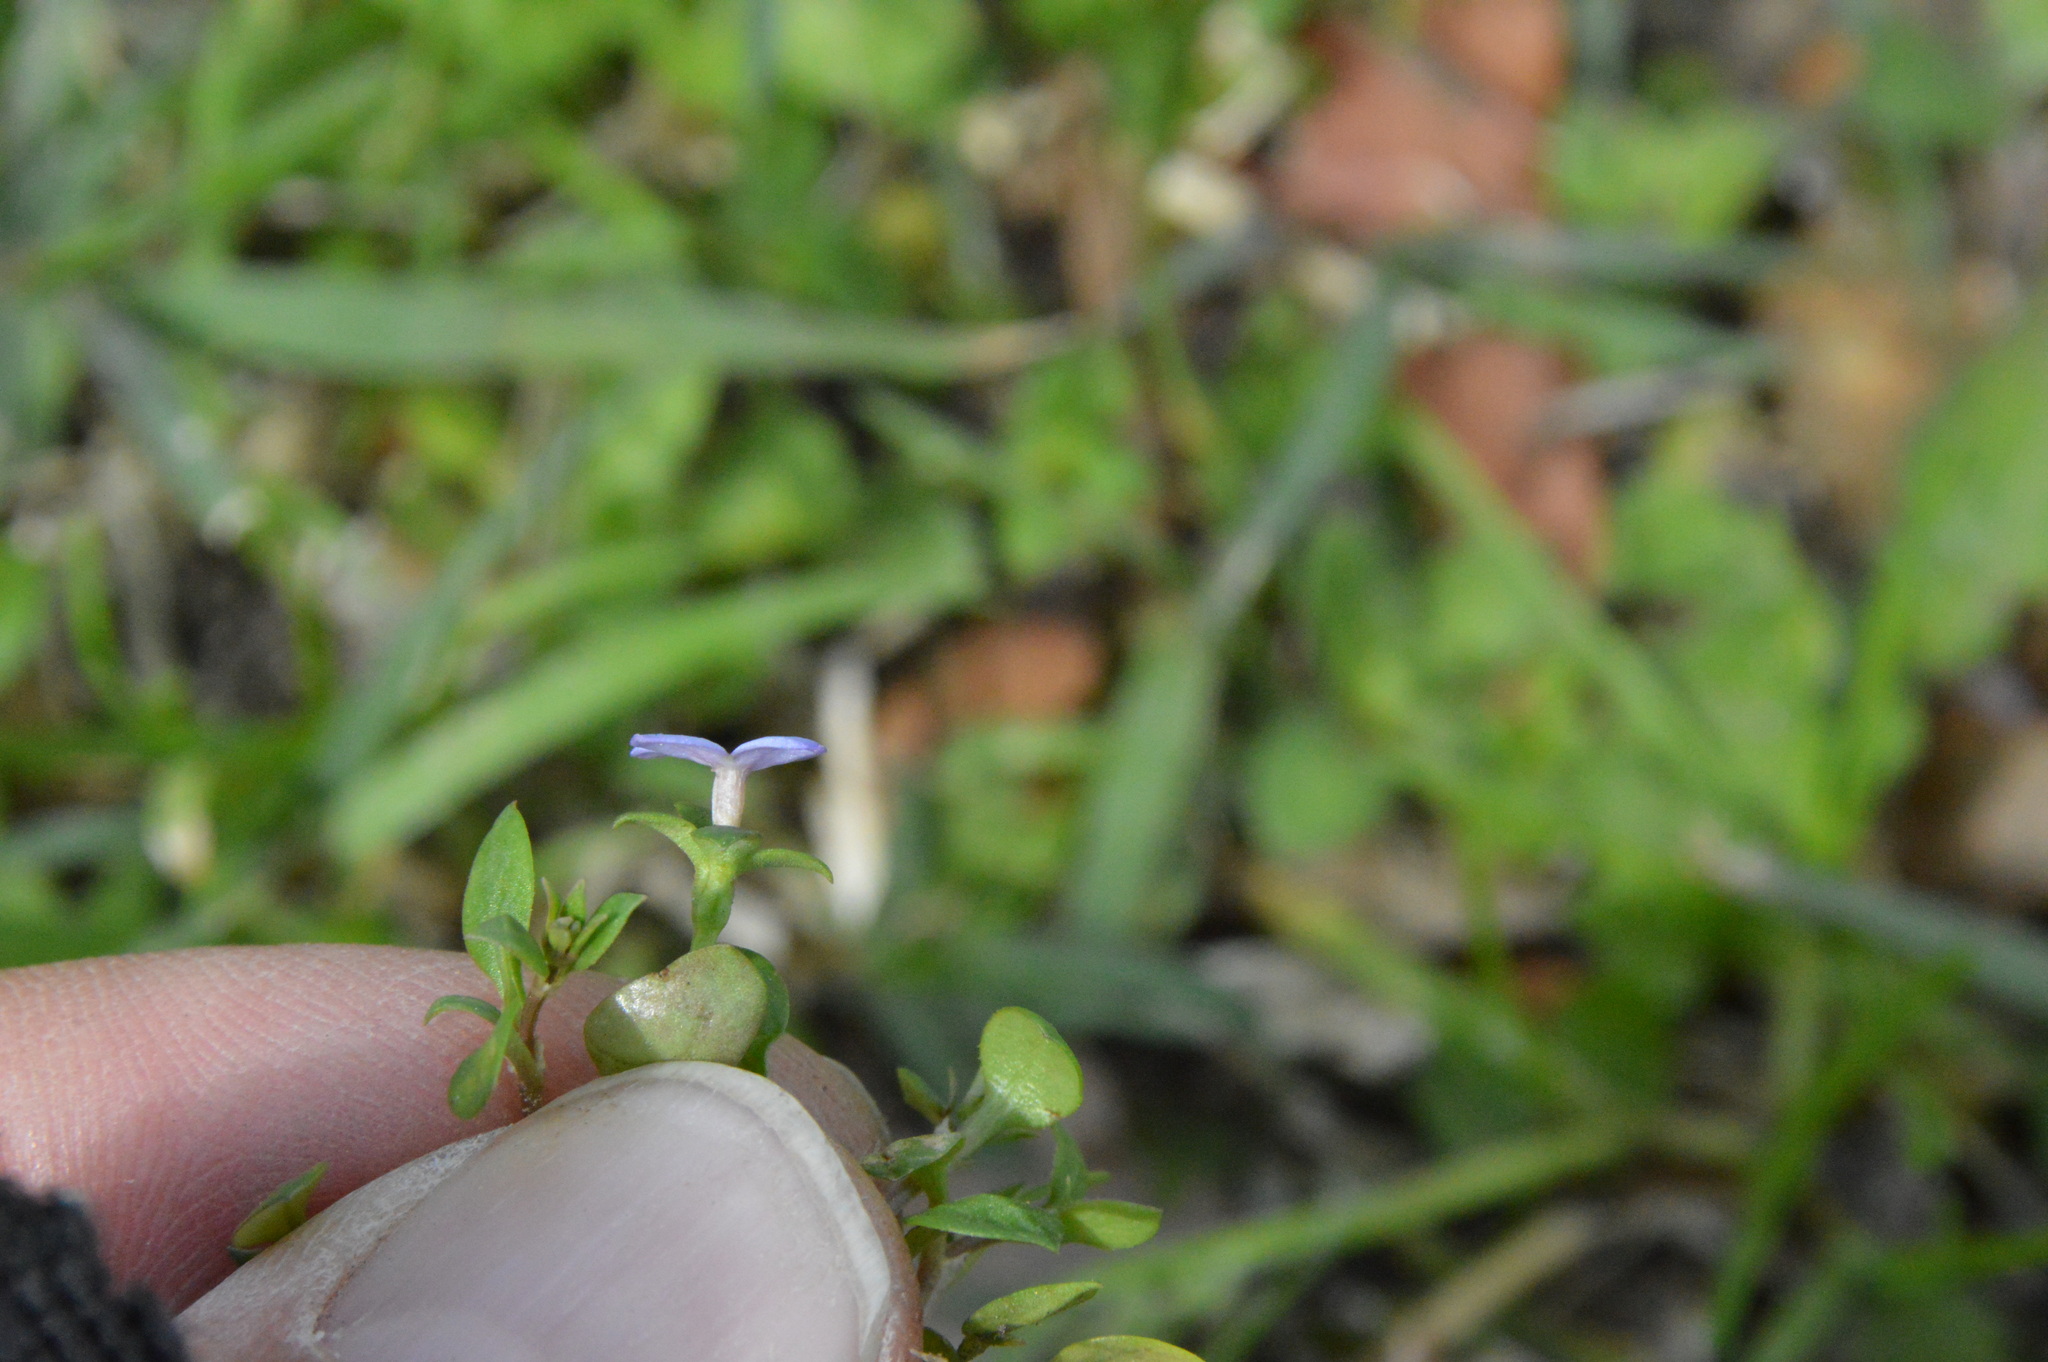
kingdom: Plantae
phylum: Tracheophyta
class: Magnoliopsida
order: Gentianales
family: Rubiaceae
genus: Houstonia
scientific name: Houstonia pusilla
